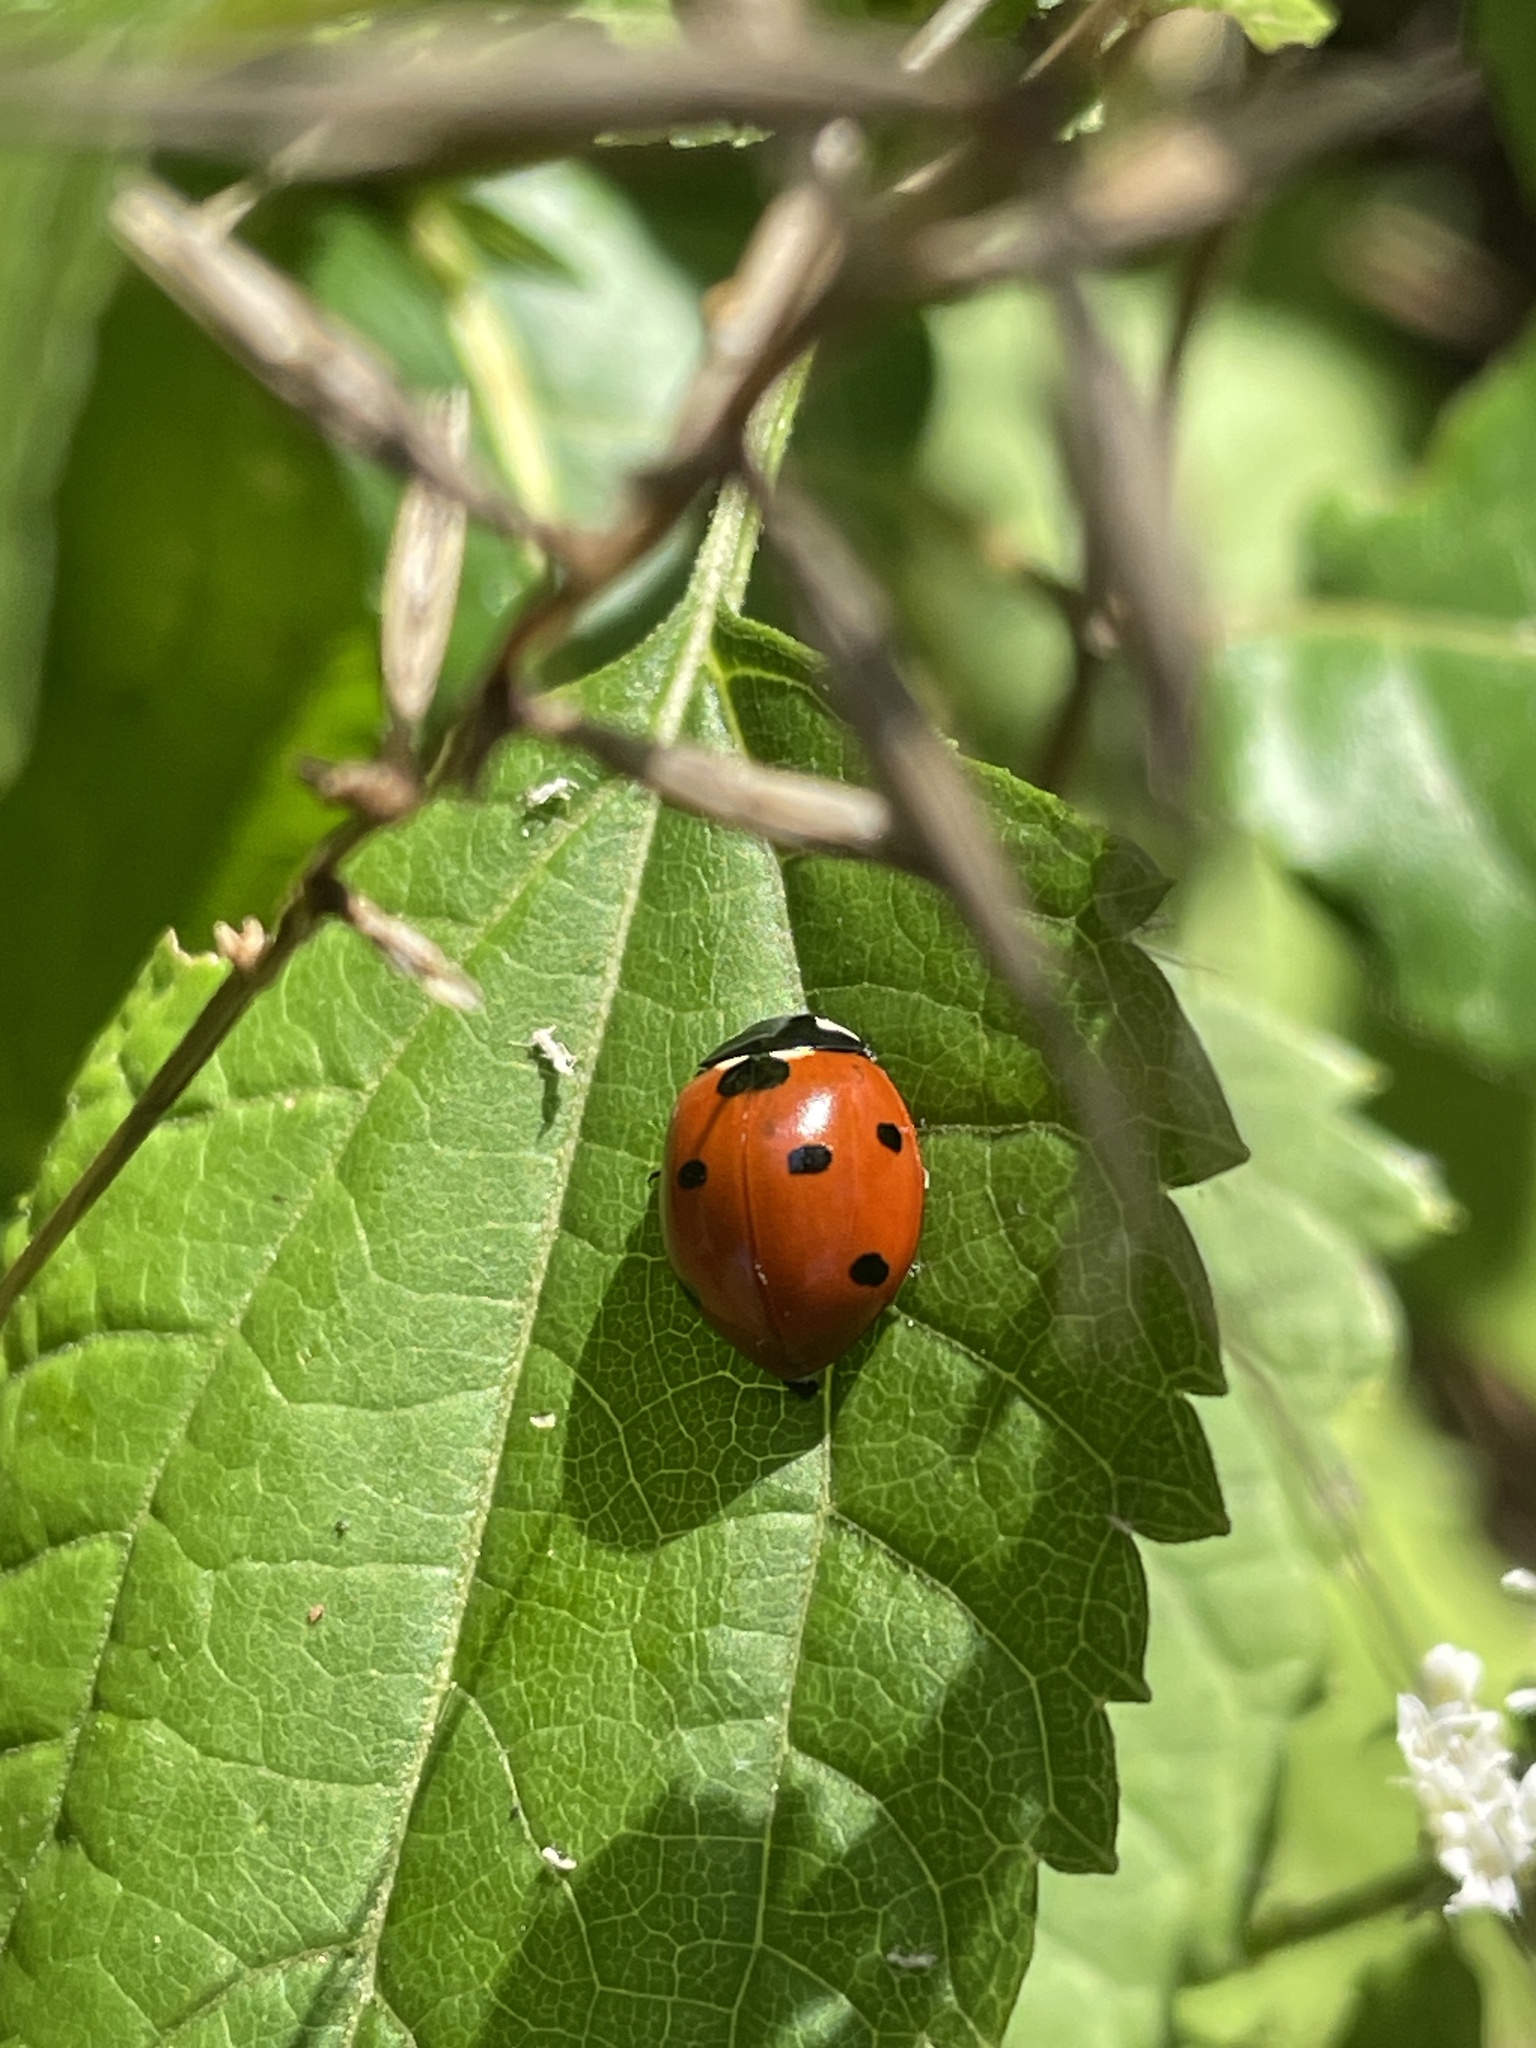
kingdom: Animalia
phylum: Arthropoda
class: Insecta
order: Coleoptera
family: Coccinellidae
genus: Coccinella
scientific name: Coccinella septempunctata
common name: Sevenspotted lady beetle
